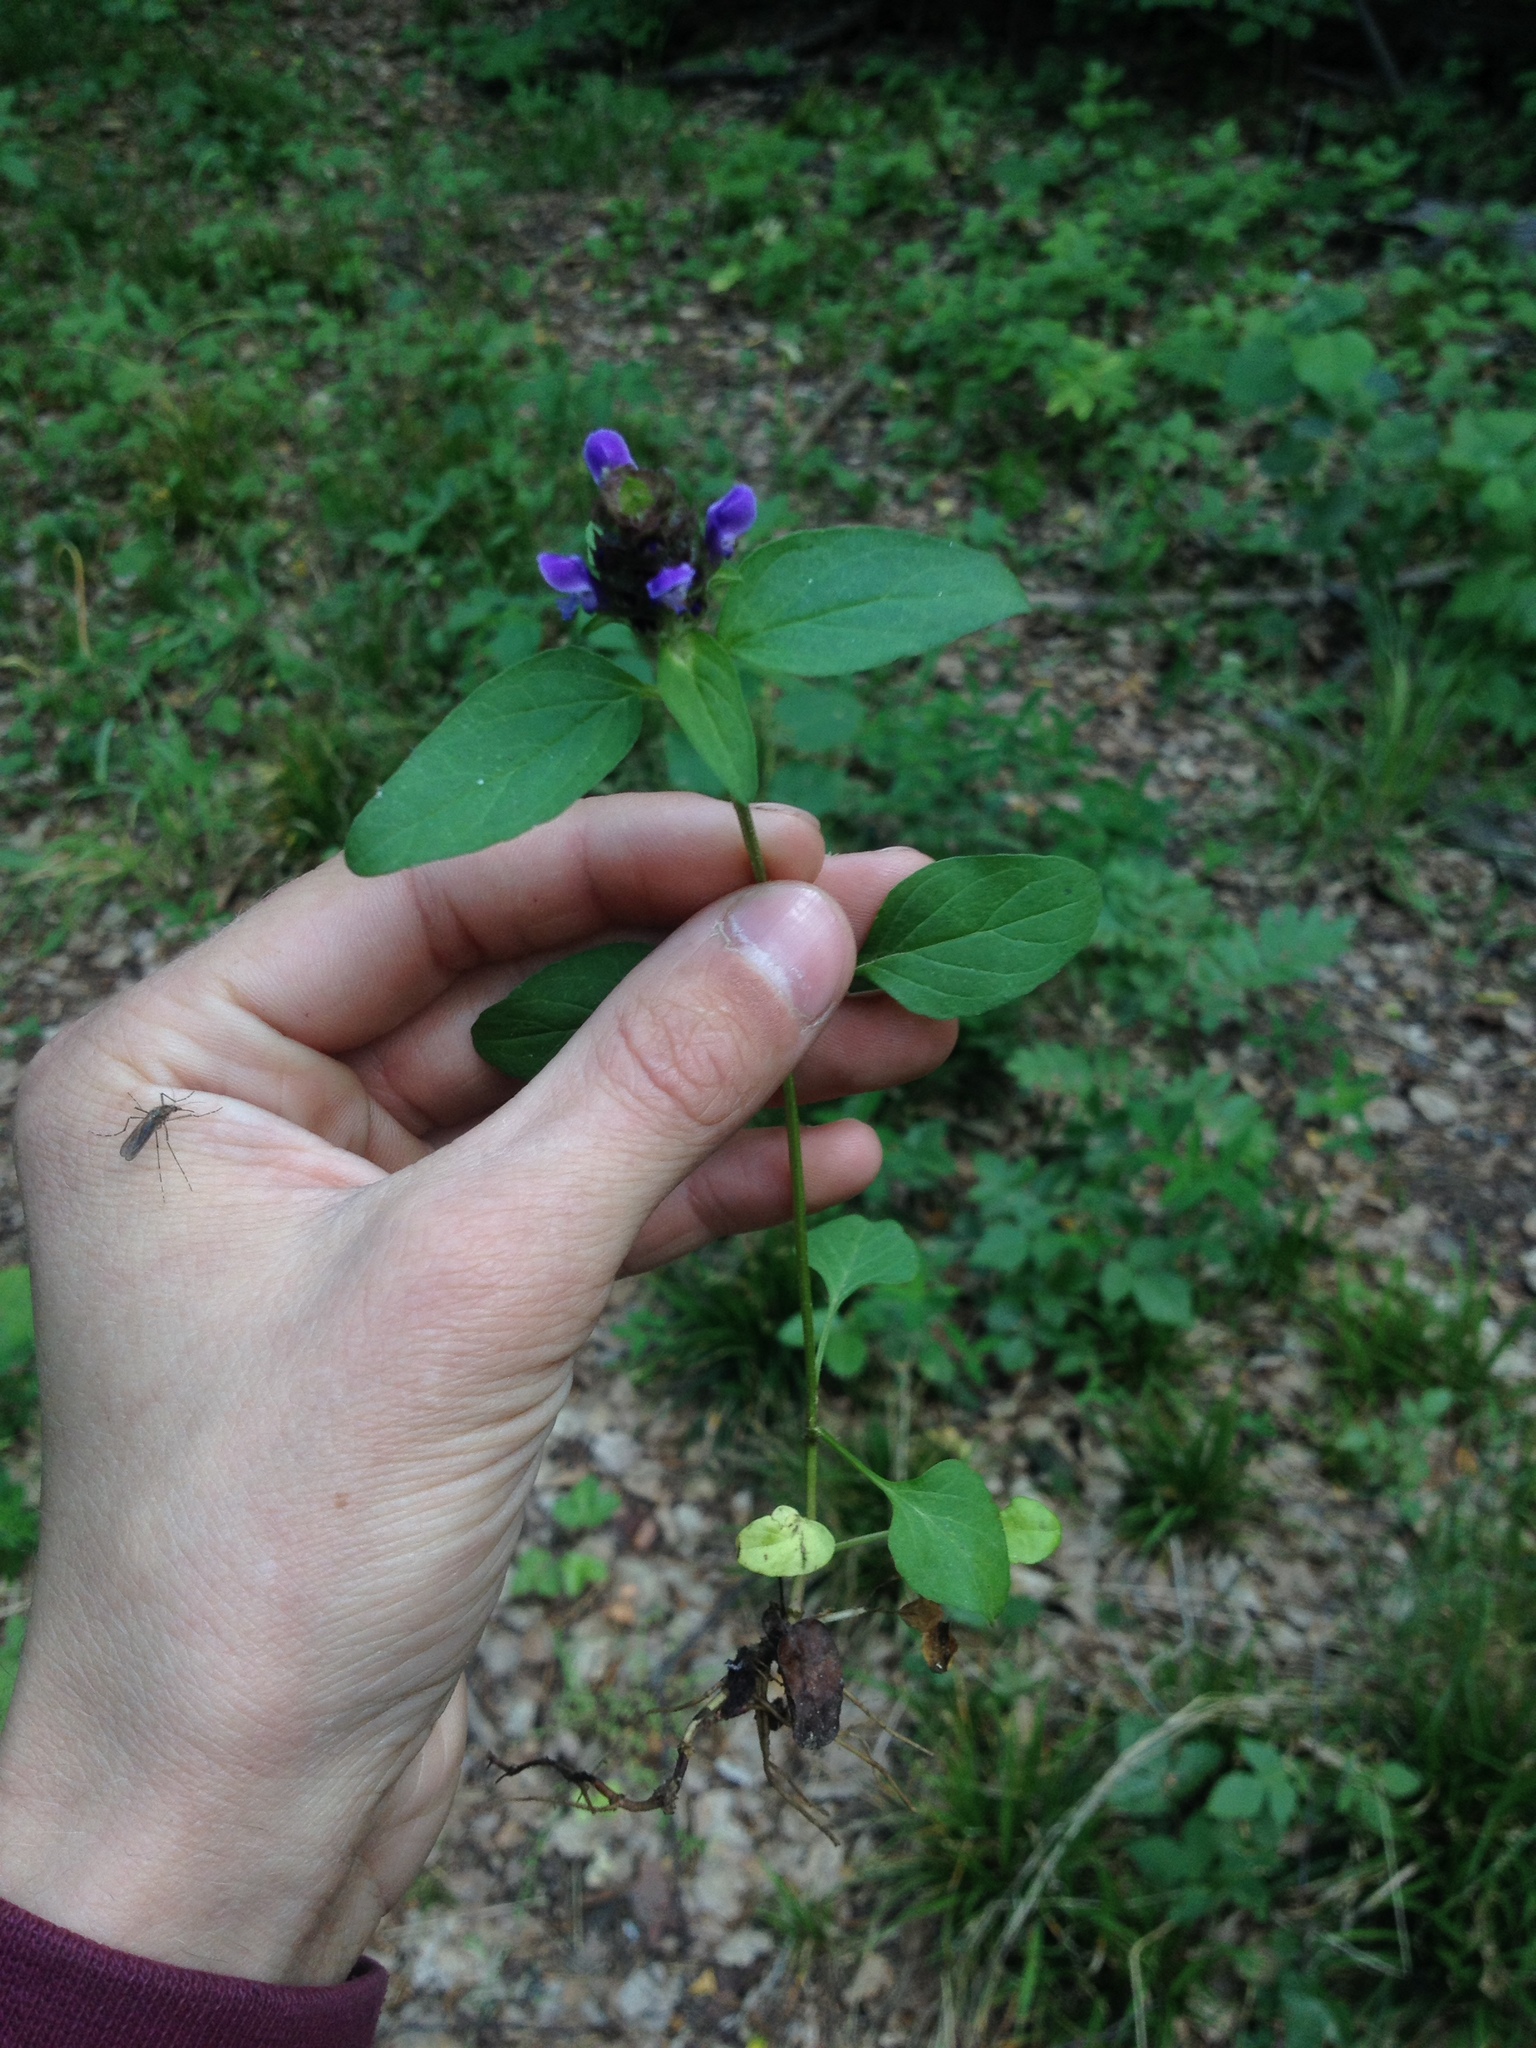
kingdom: Plantae
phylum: Tracheophyta
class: Magnoliopsida
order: Lamiales
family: Lamiaceae
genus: Prunella
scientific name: Prunella vulgaris
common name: Heal-all
